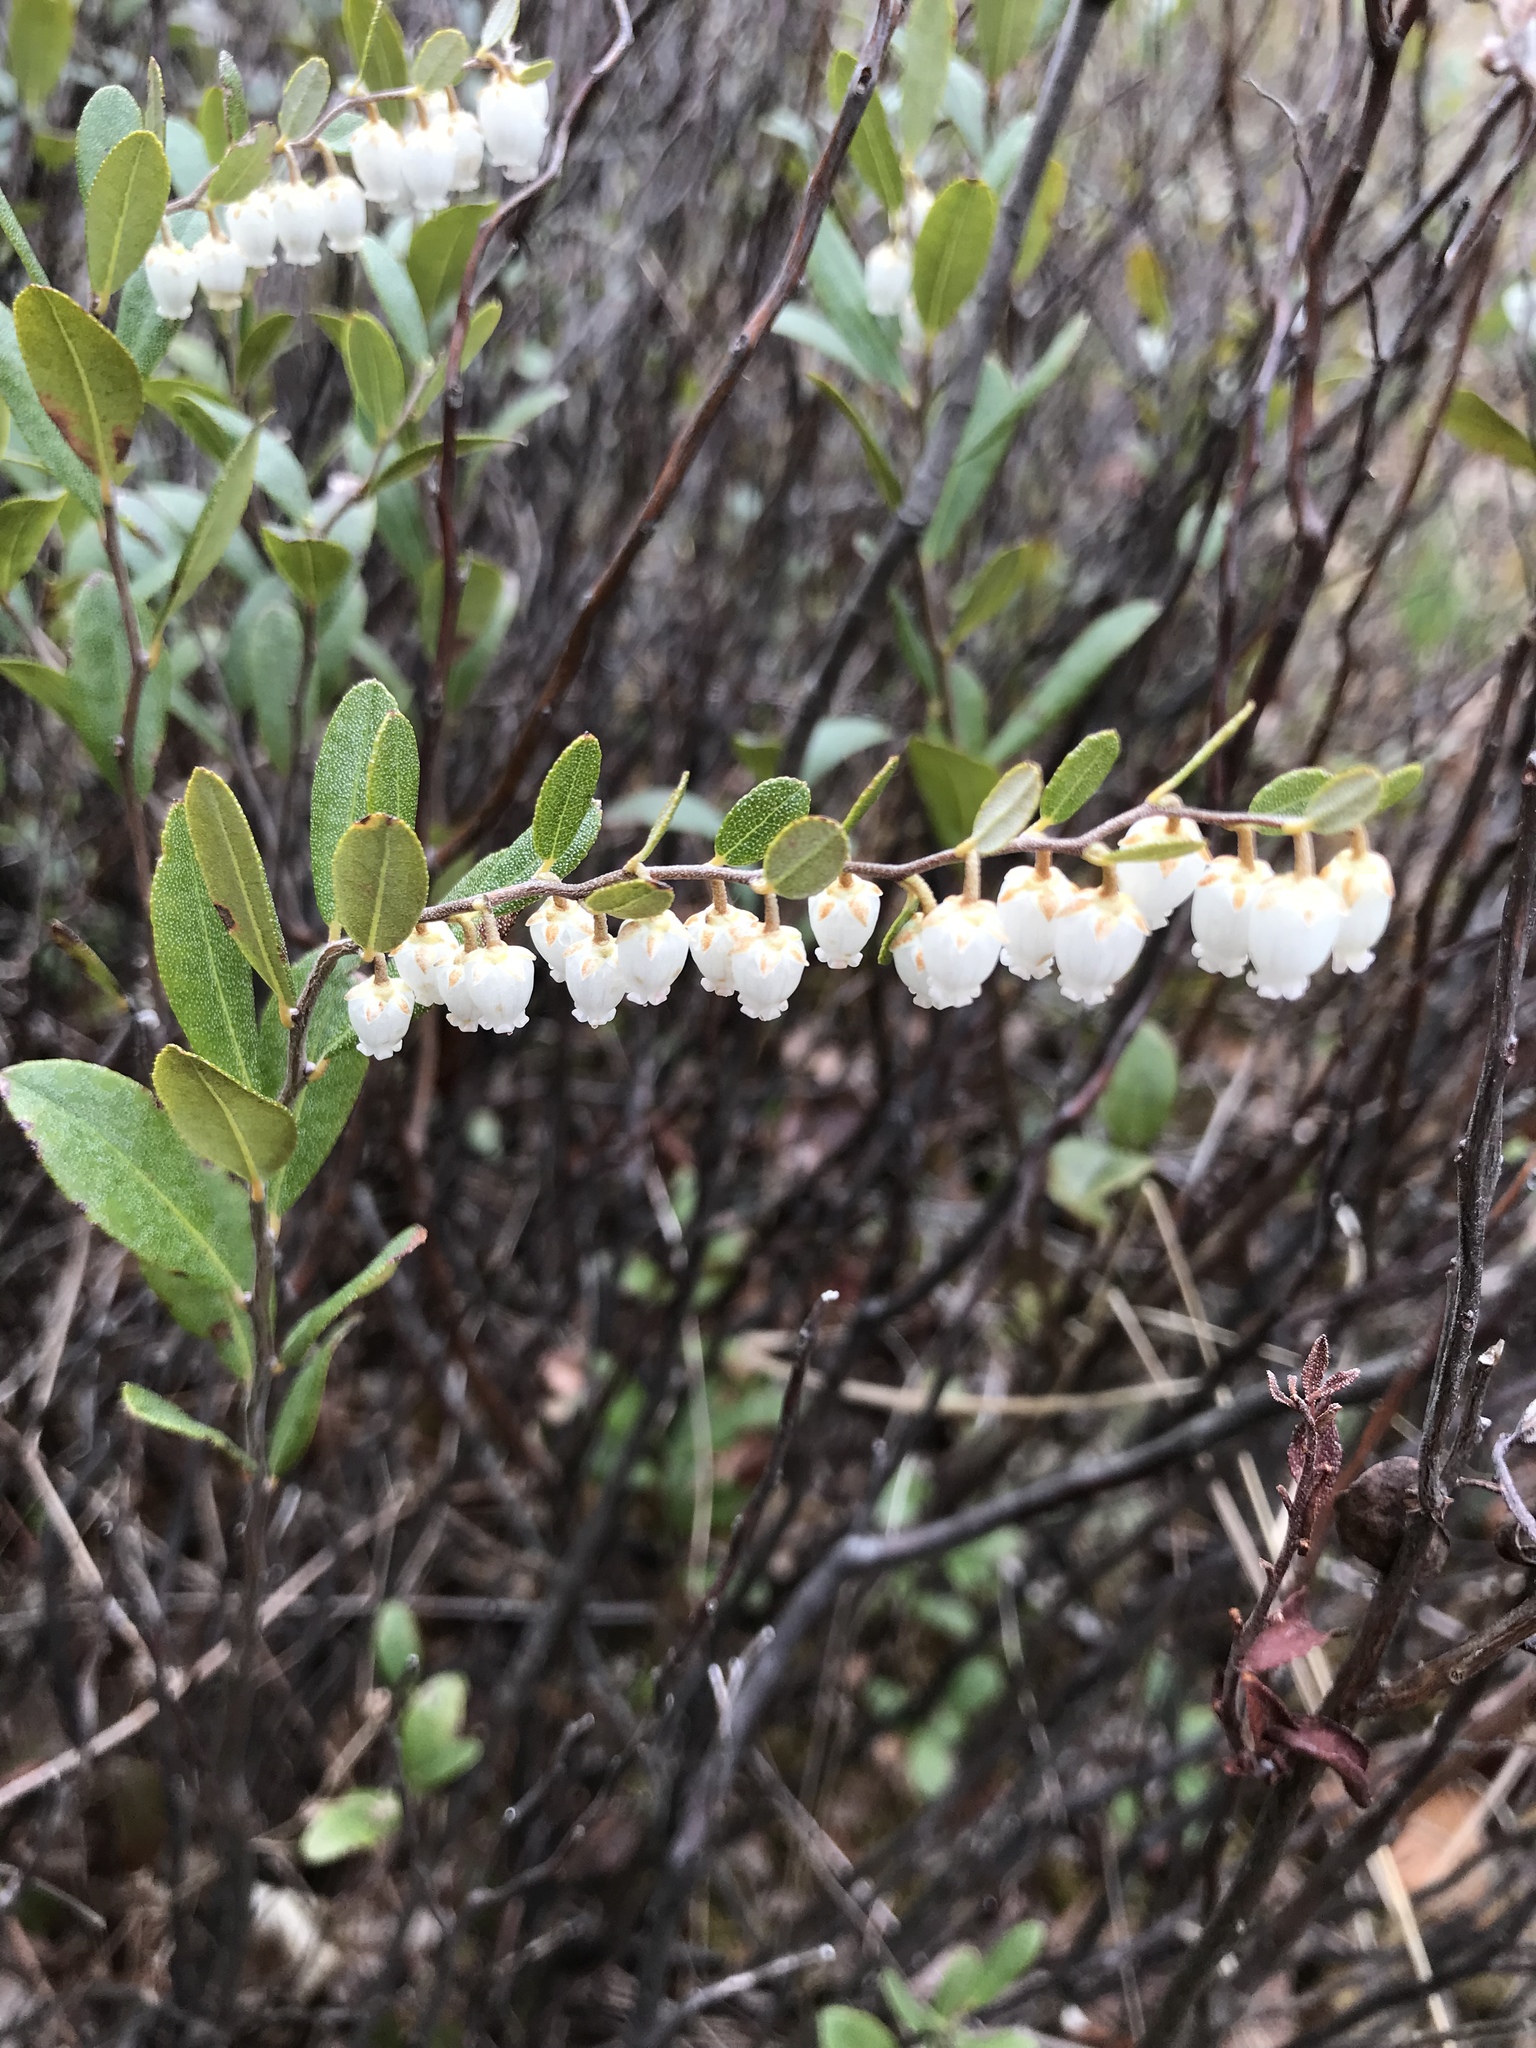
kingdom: Plantae
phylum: Tracheophyta
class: Magnoliopsida
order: Ericales
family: Ericaceae
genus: Chamaedaphne
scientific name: Chamaedaphne calyculata
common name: Leatherleaf
